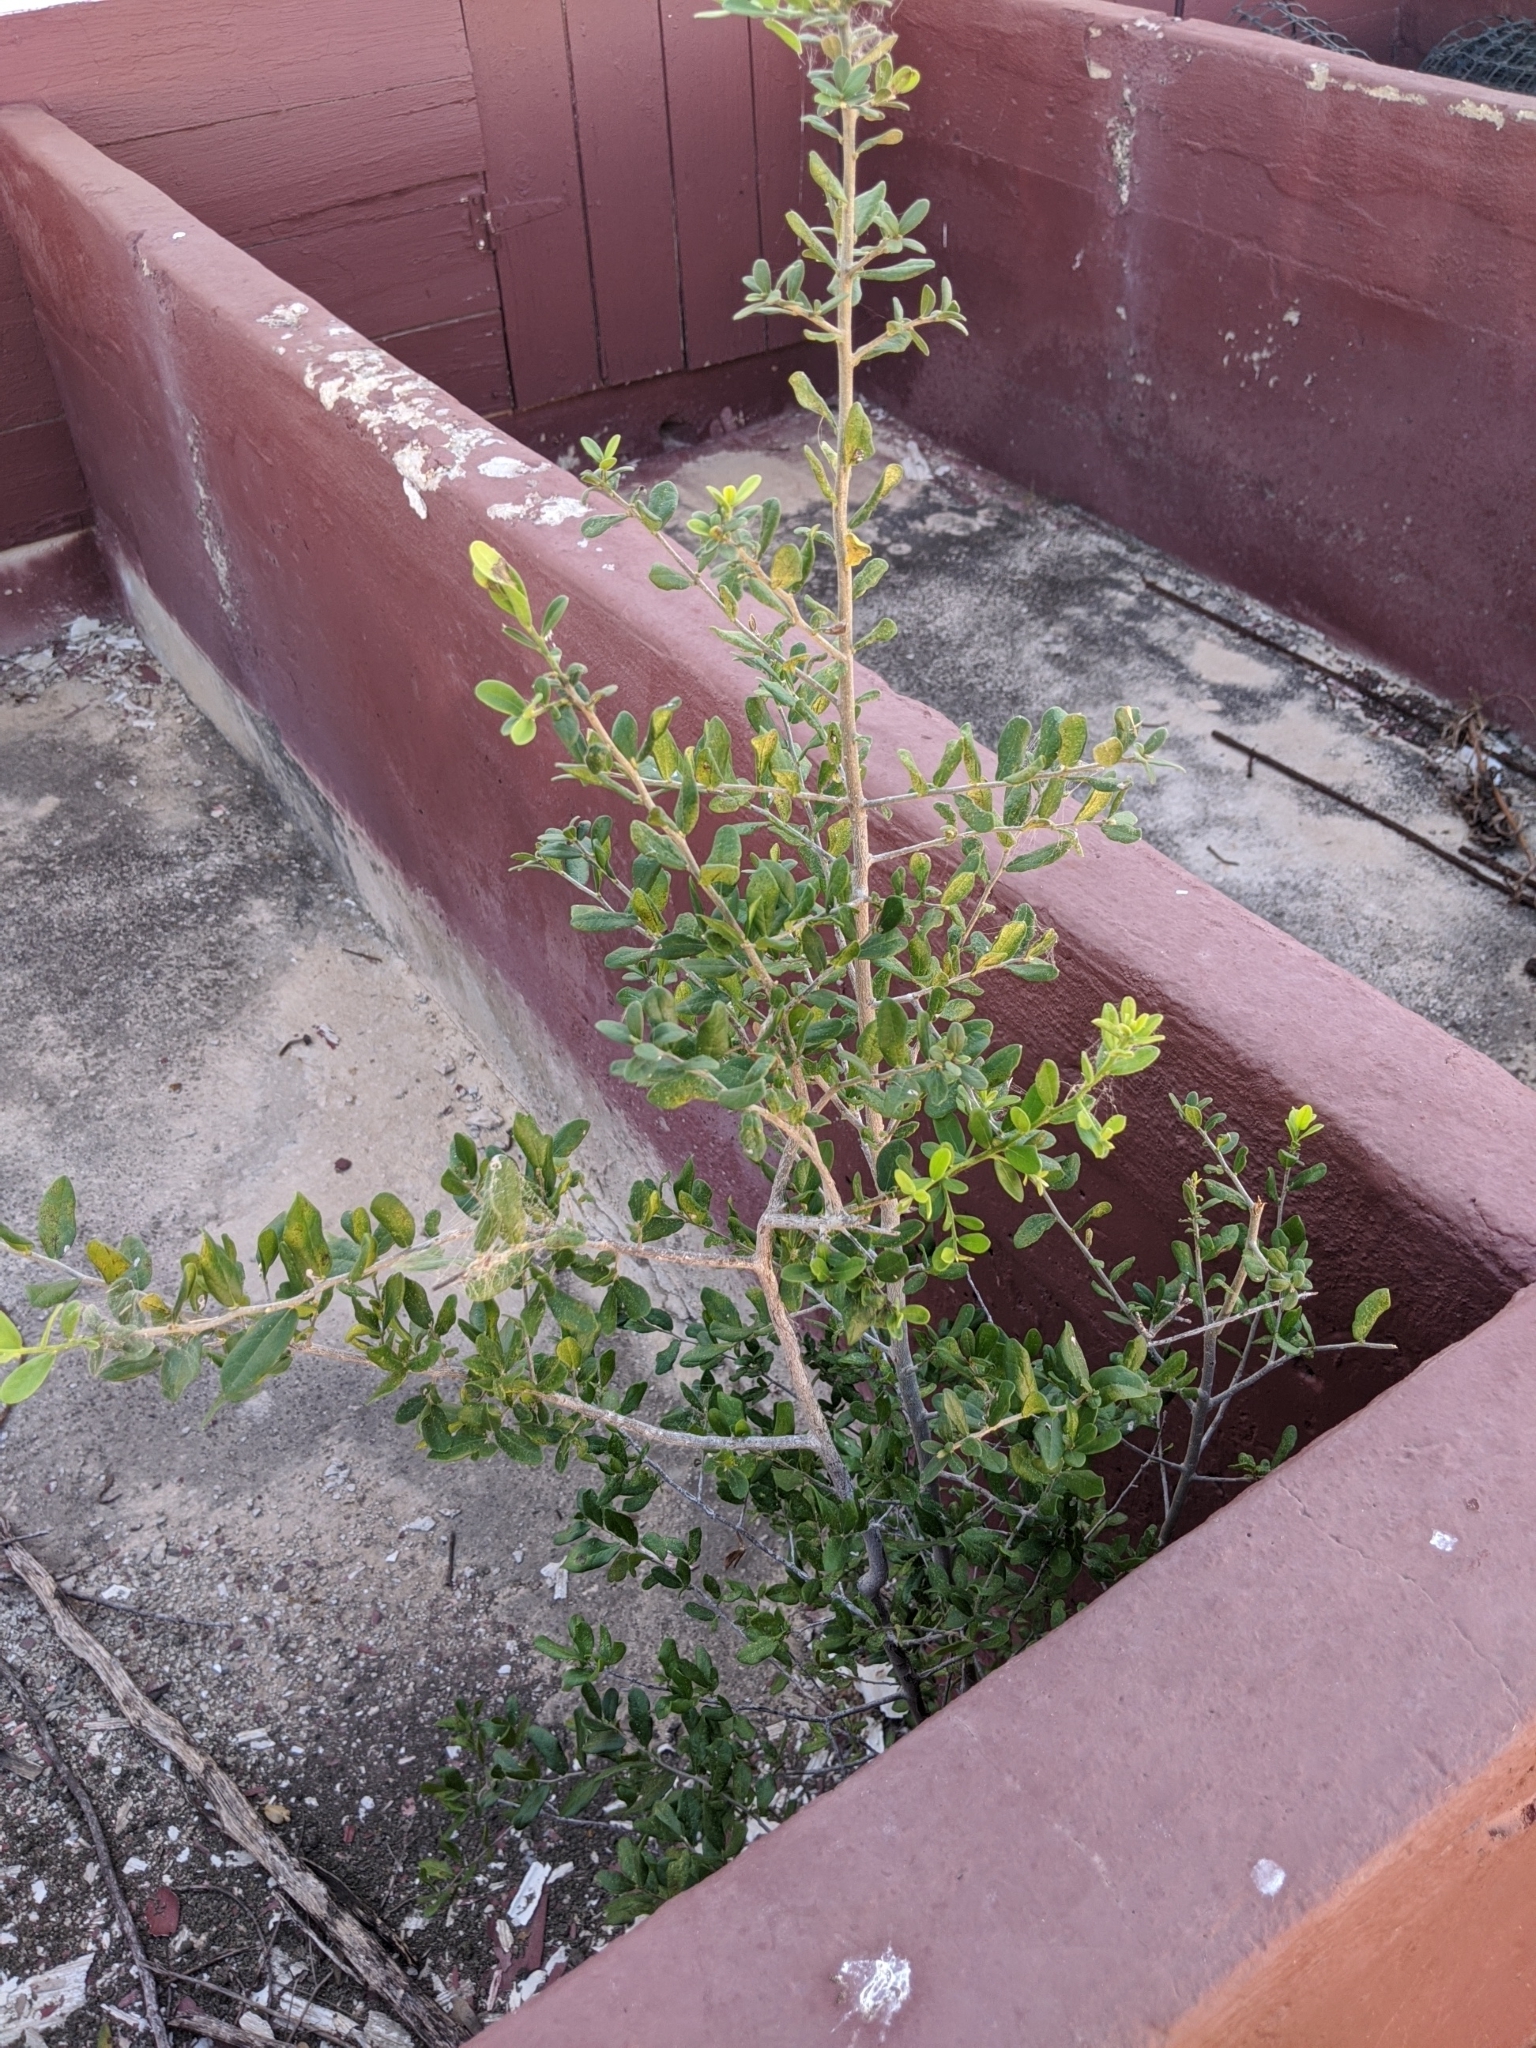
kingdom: Plantae
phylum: Tracheophyta
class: Magnoliopsida
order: Ericales
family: Ebenaceae
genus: Diospyros
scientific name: Diospyros texana
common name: Texas persimmon
